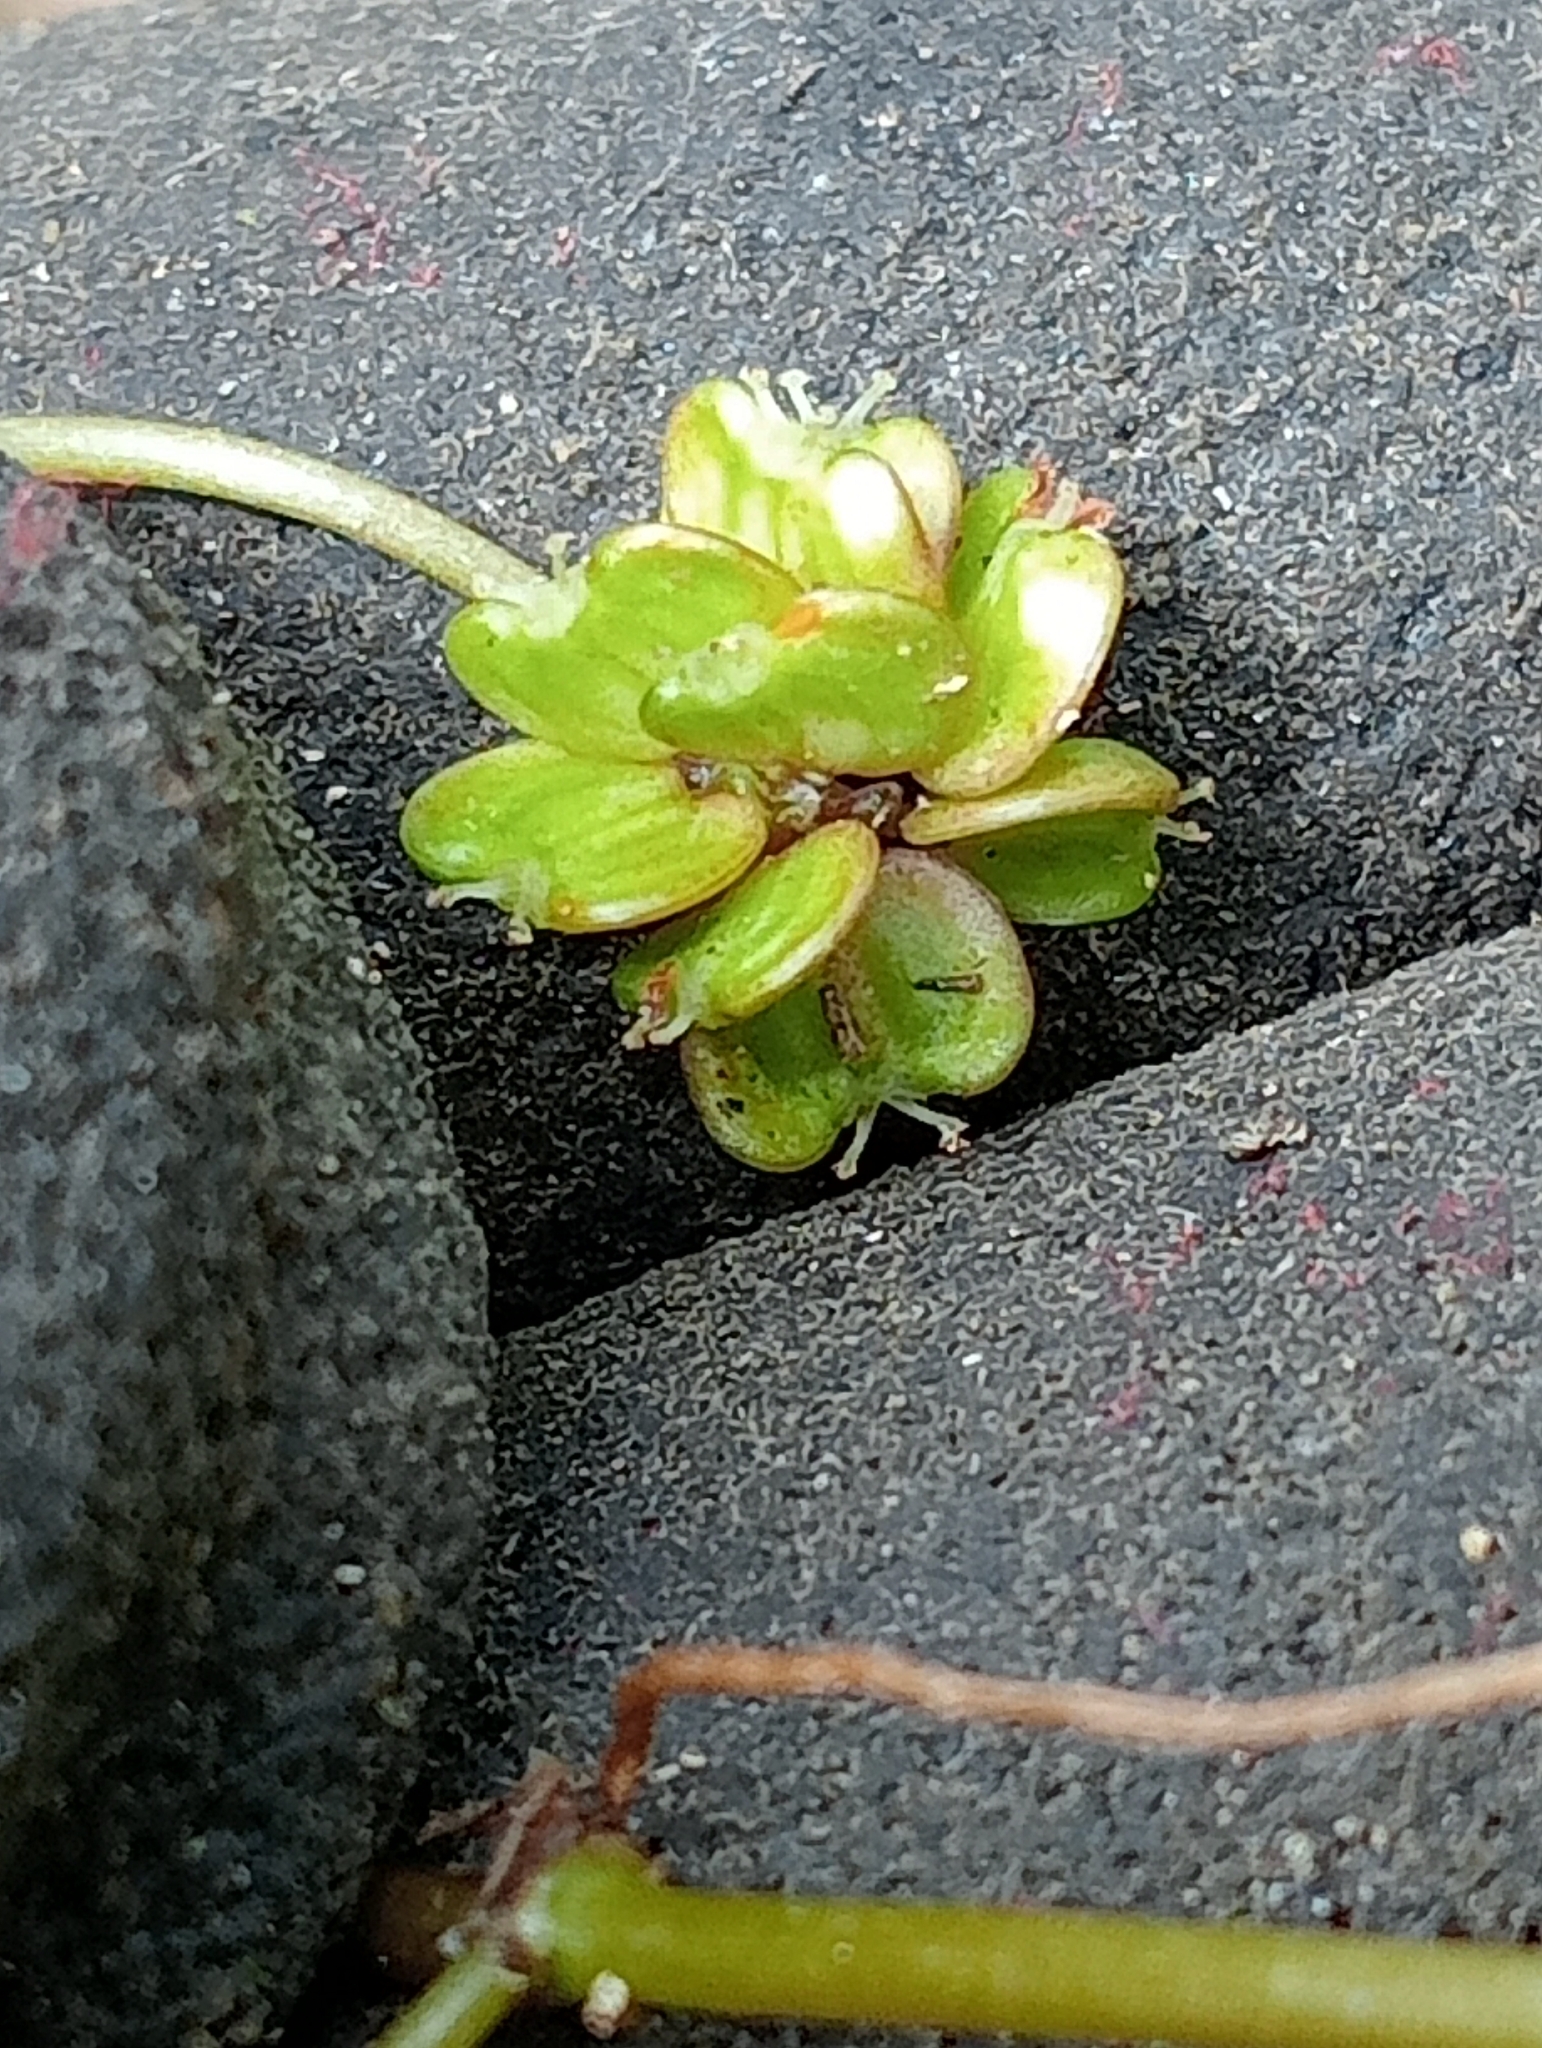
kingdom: Plantae
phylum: Tracheophyta
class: Magnoliopsida
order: Apiales
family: Araliaceae
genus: Hydrocotyle
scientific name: Hydrocotyle pterocarpa
